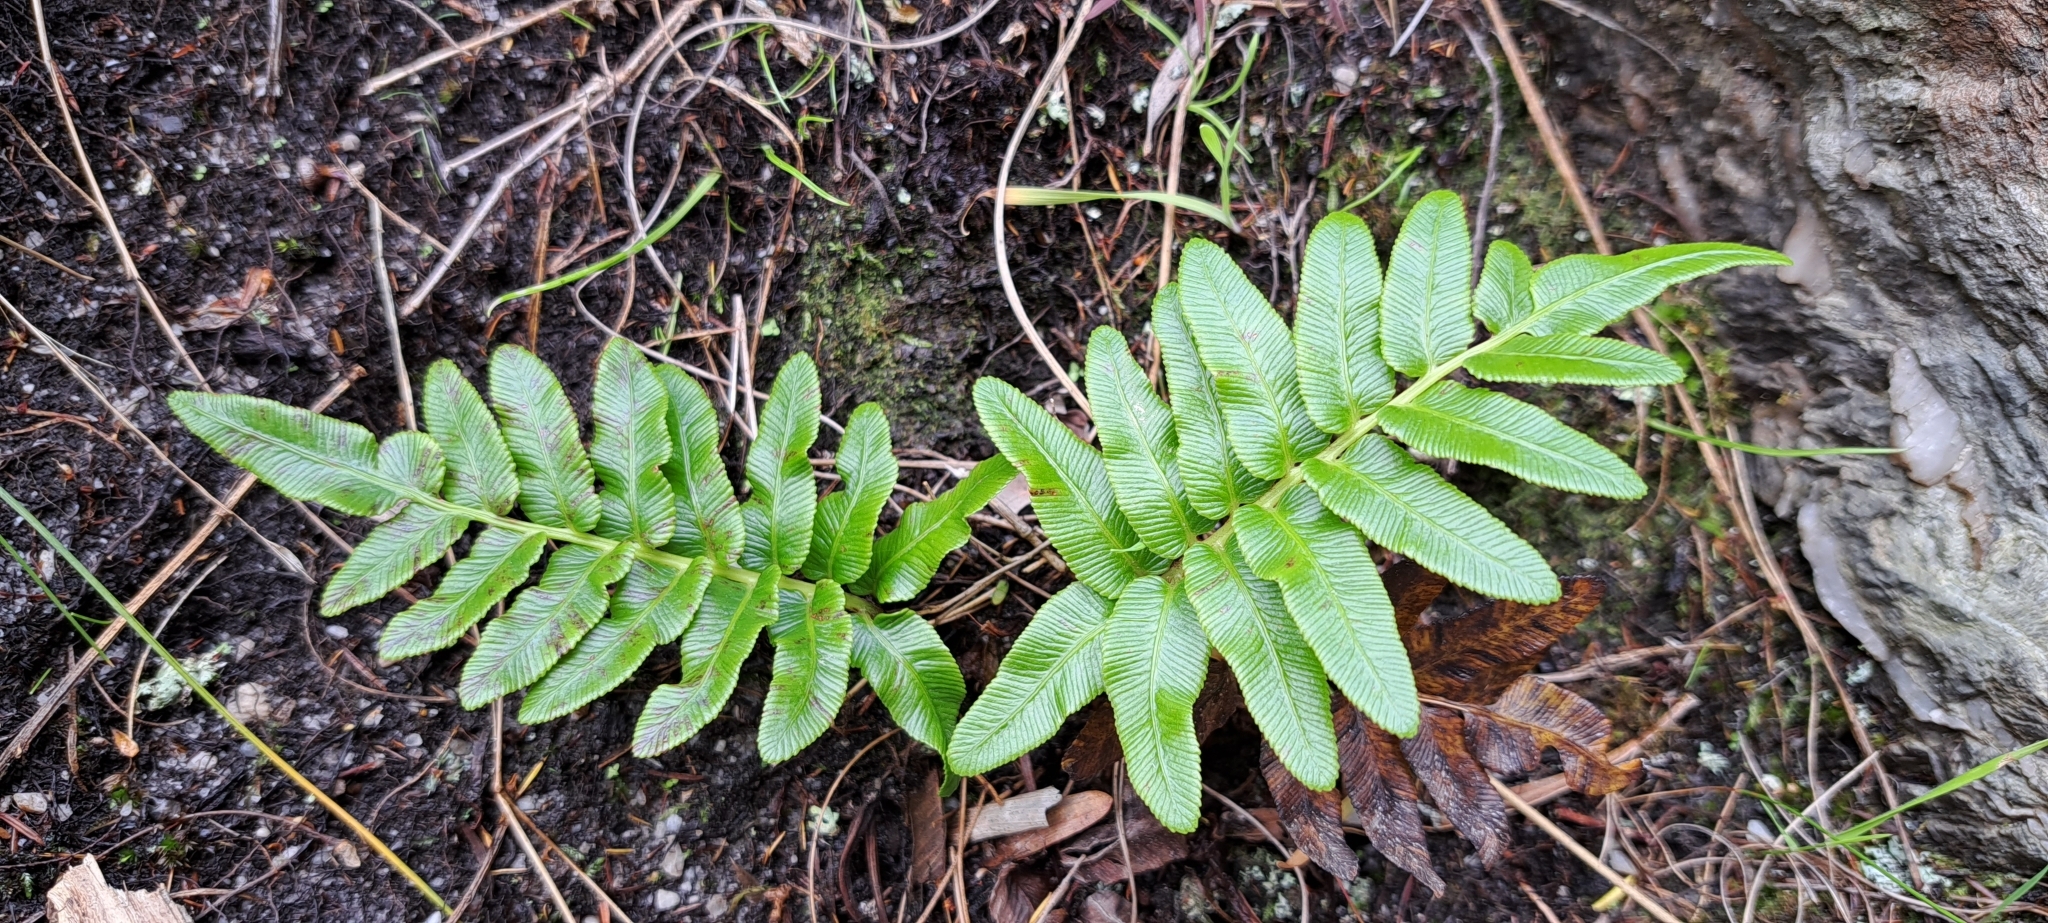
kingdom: Plantae
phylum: Tracheophyta
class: Polypodiopsida
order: Polypodiales
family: Blechnaceae
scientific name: Blechnaceae
